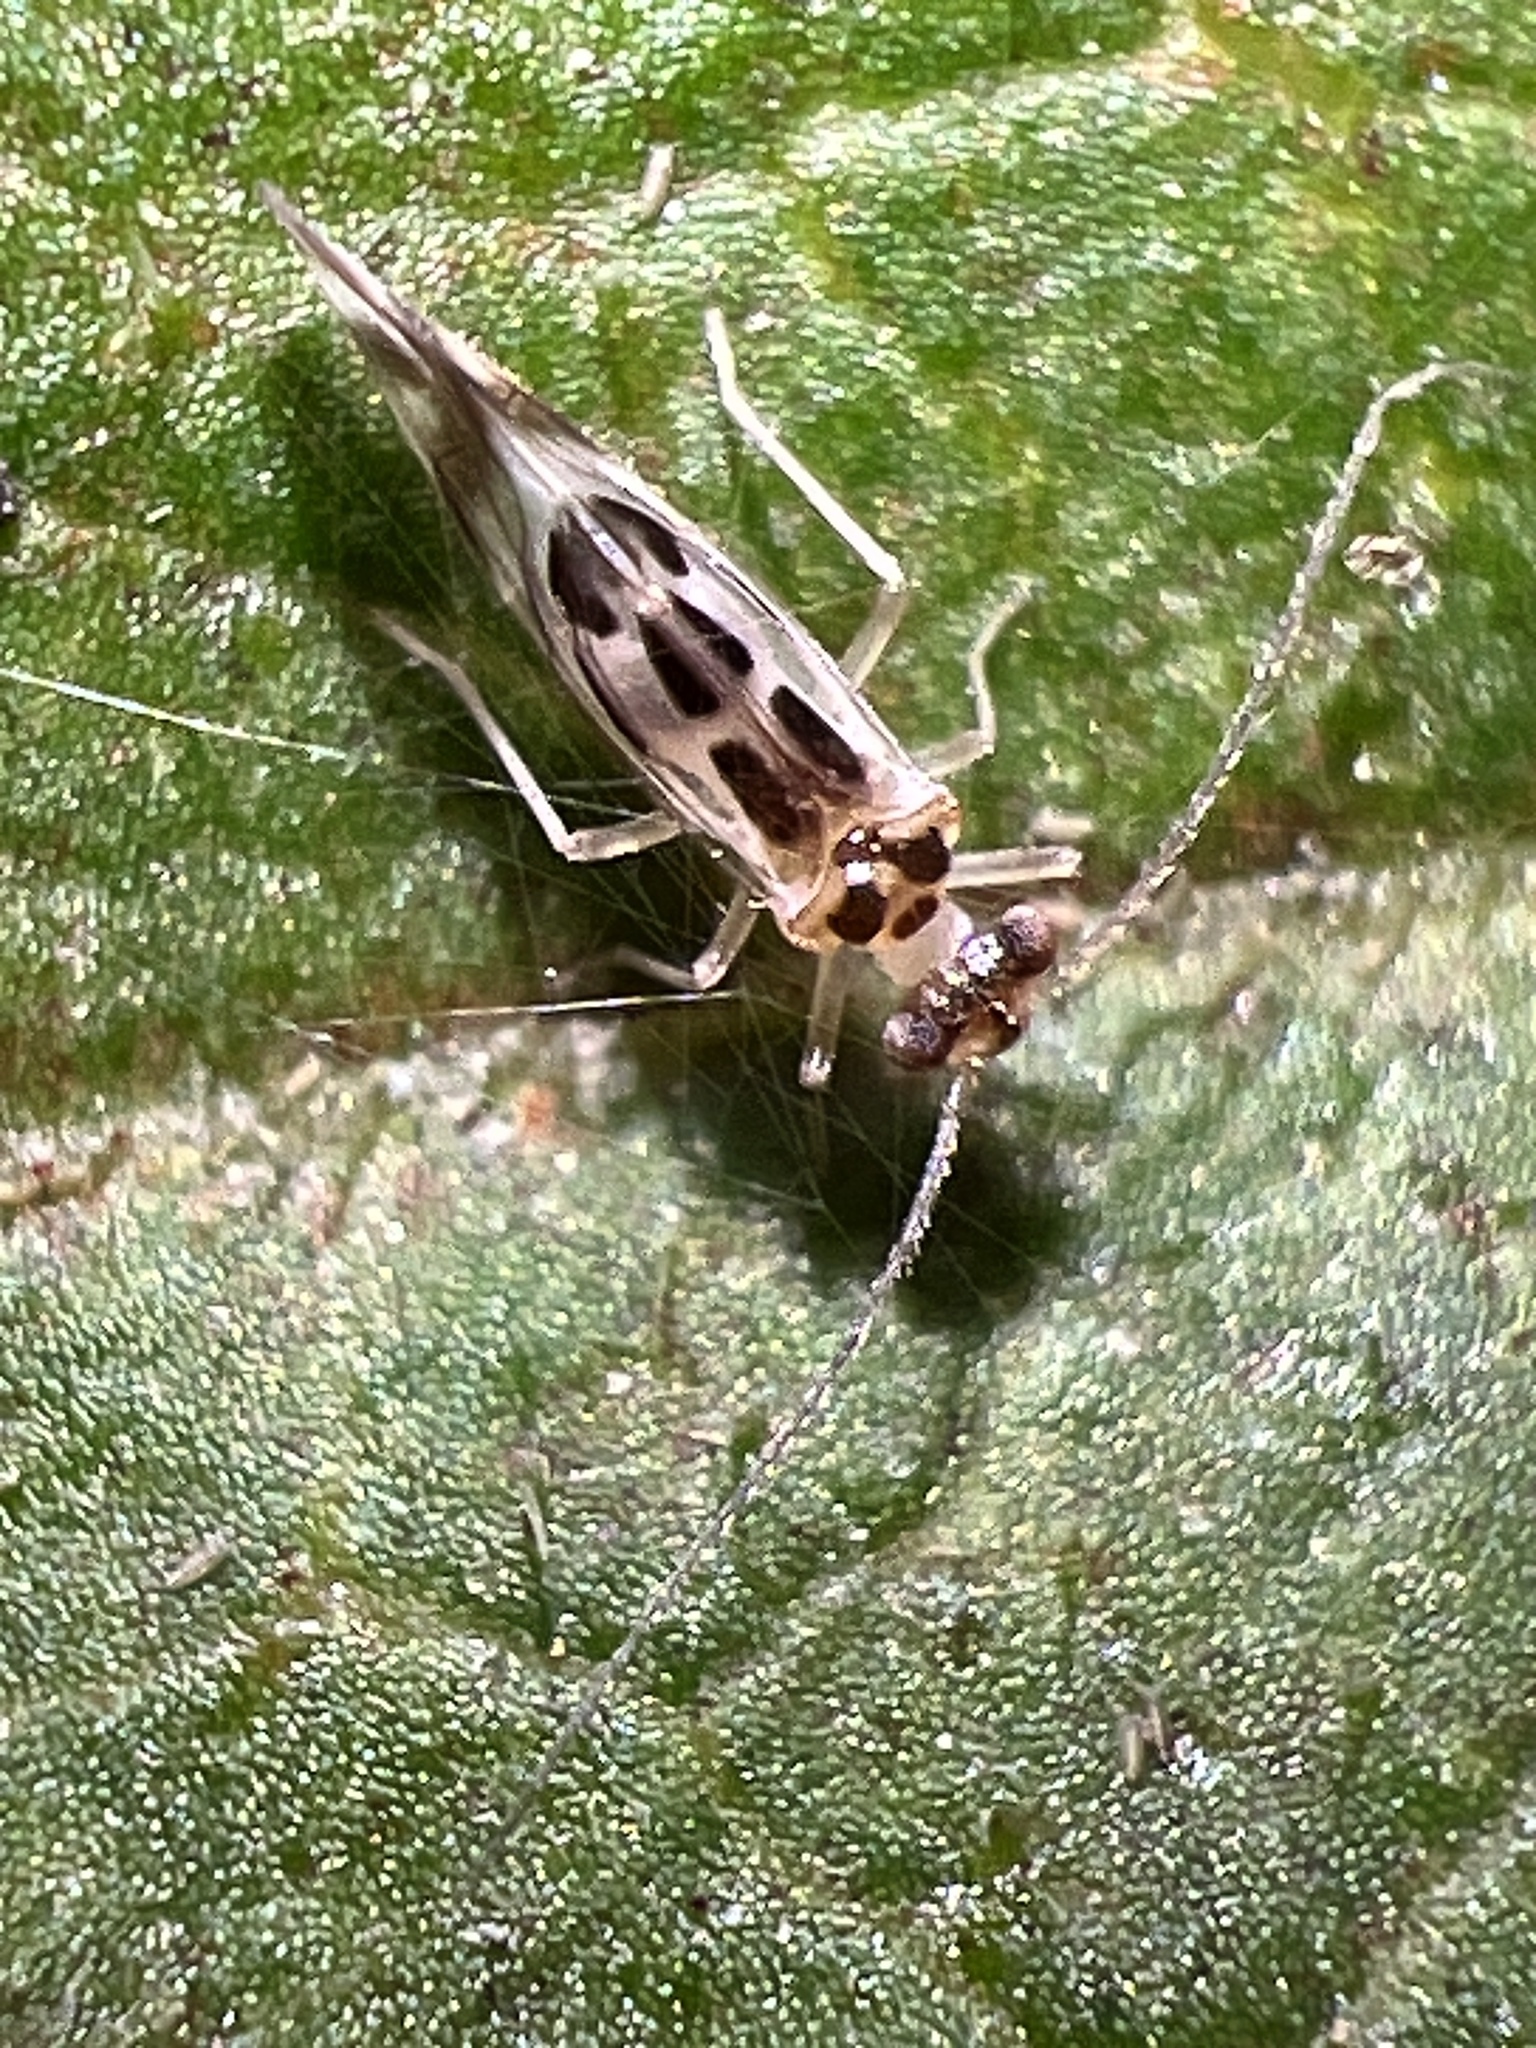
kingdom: Animalia
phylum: Arthropoda
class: Insecta
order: Psocodea
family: Stenopsocidae
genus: Graphopsocus
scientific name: Graphopsocus cruciatus
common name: Lizard bark louse
